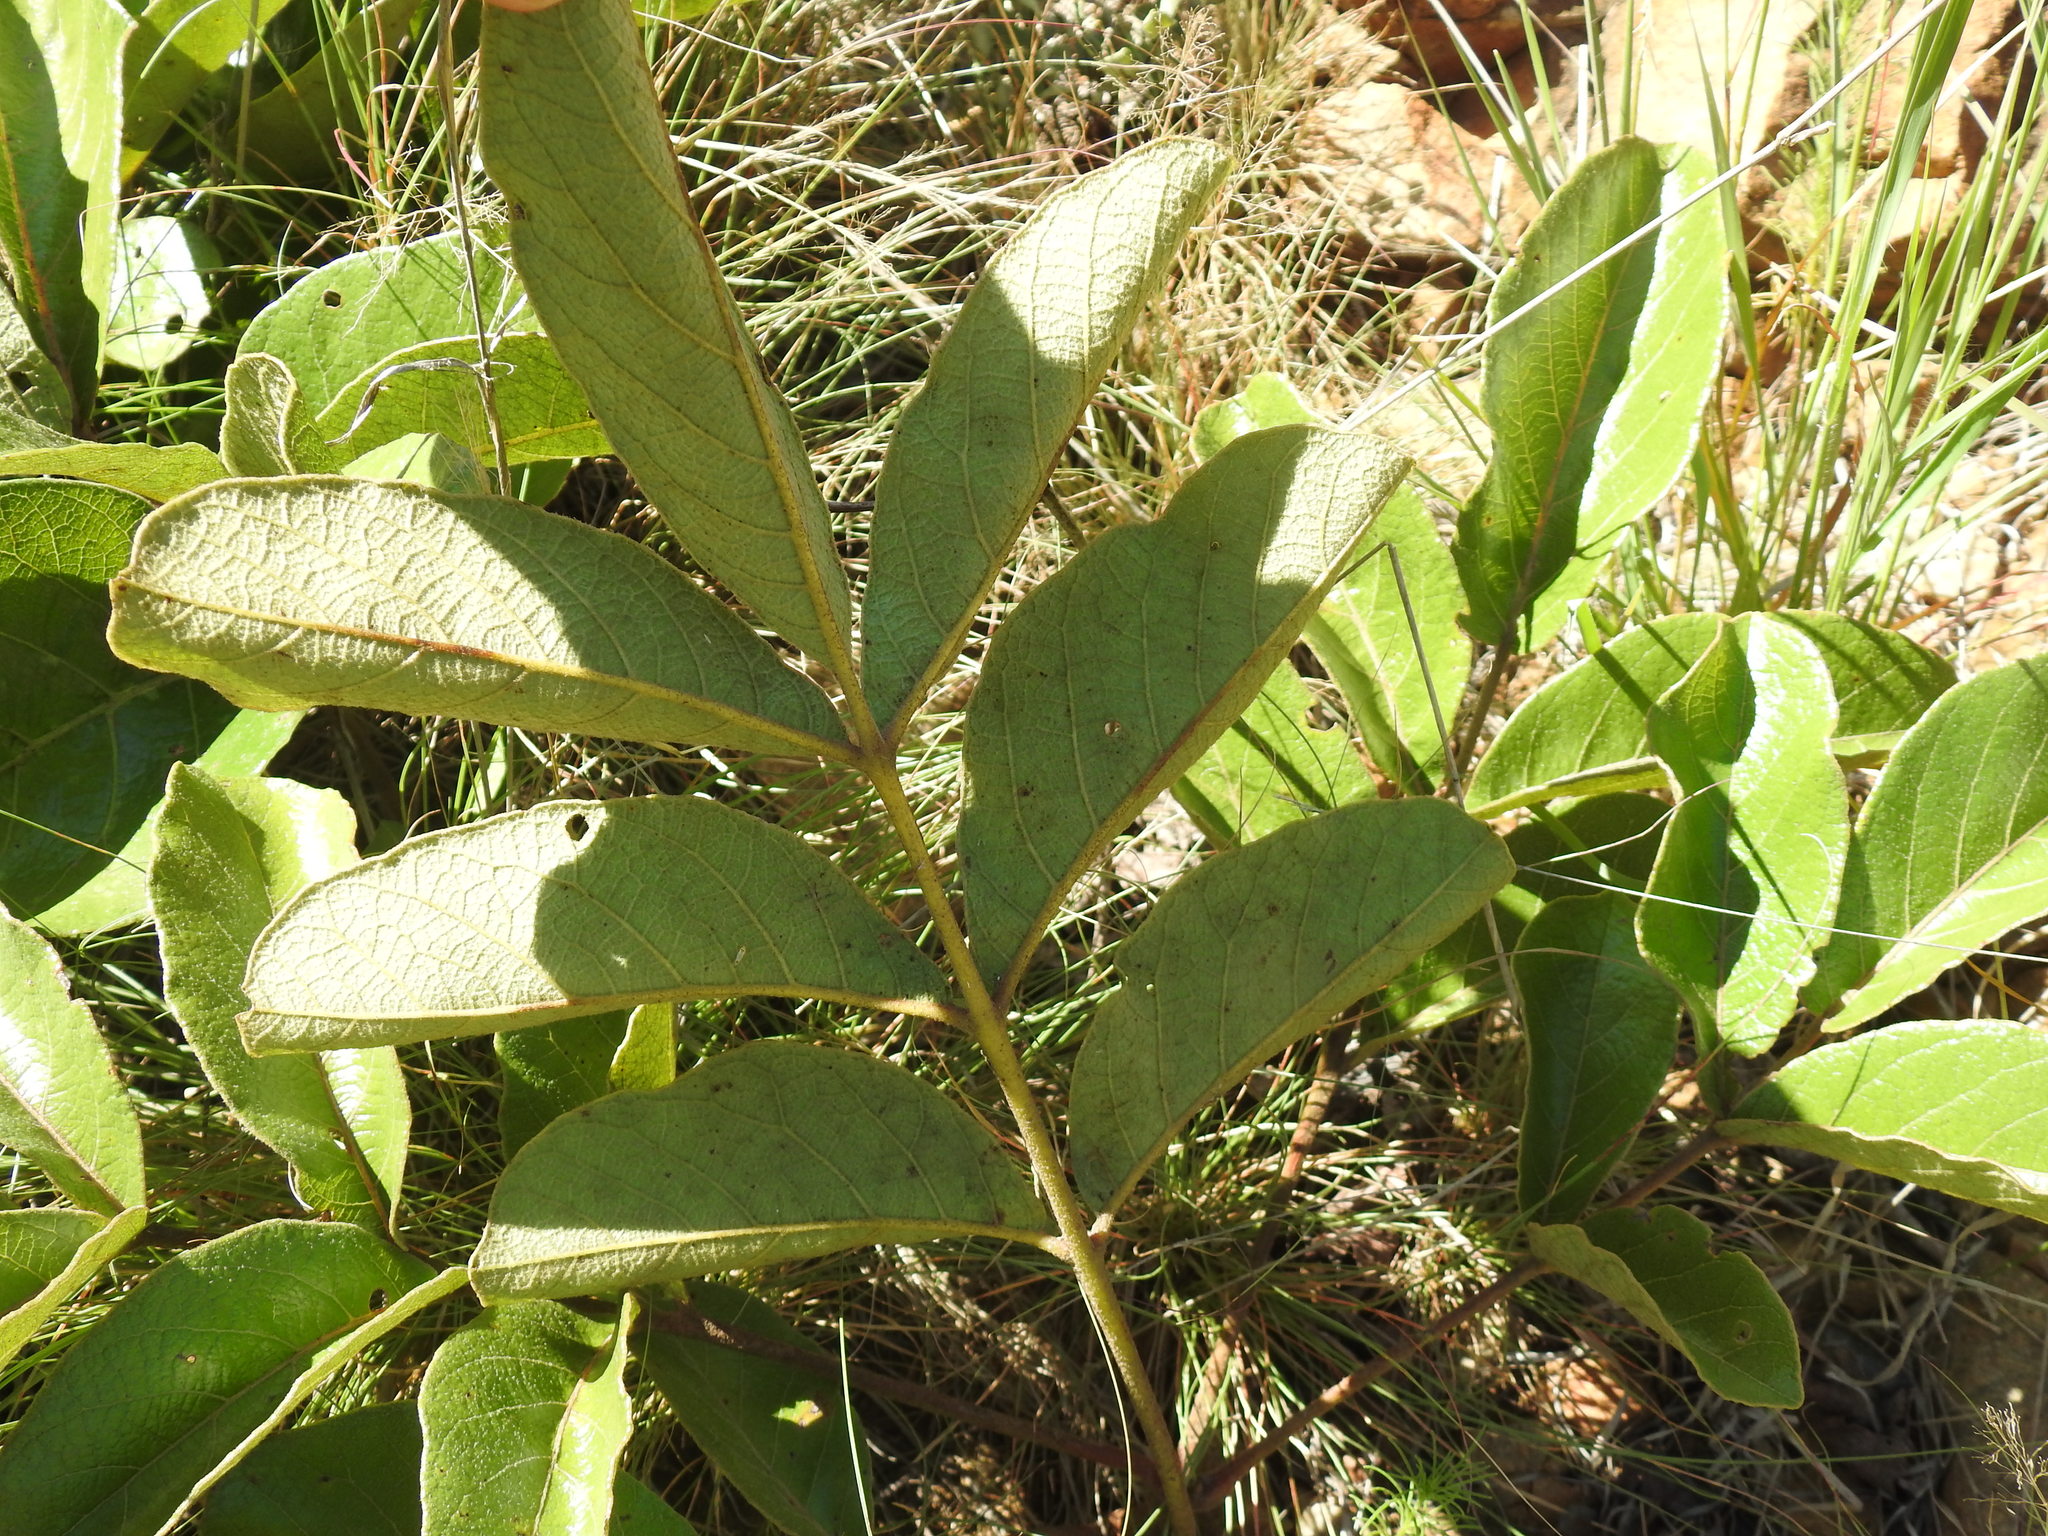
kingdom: Plantae
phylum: Tracheophyta
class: Magnoliopsida
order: Sapindales
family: Anacardiaceae
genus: Lannea
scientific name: Lannea edulis
